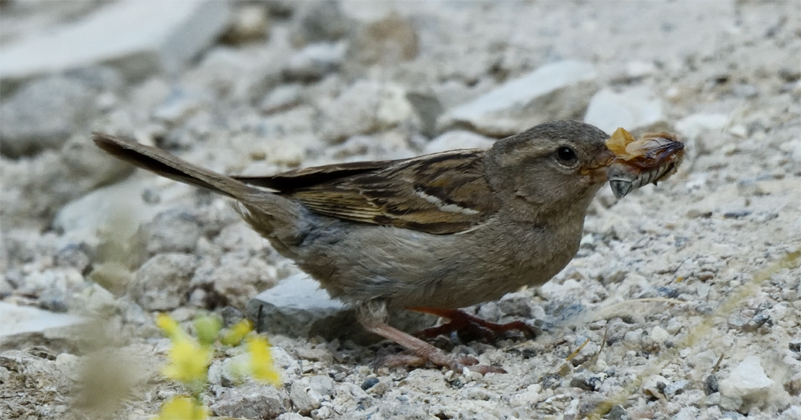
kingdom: Animalia
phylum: Chordata
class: Aves
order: Passeriformes
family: Passeridae
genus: Passer
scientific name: Passer domesticus
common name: House sparrow
